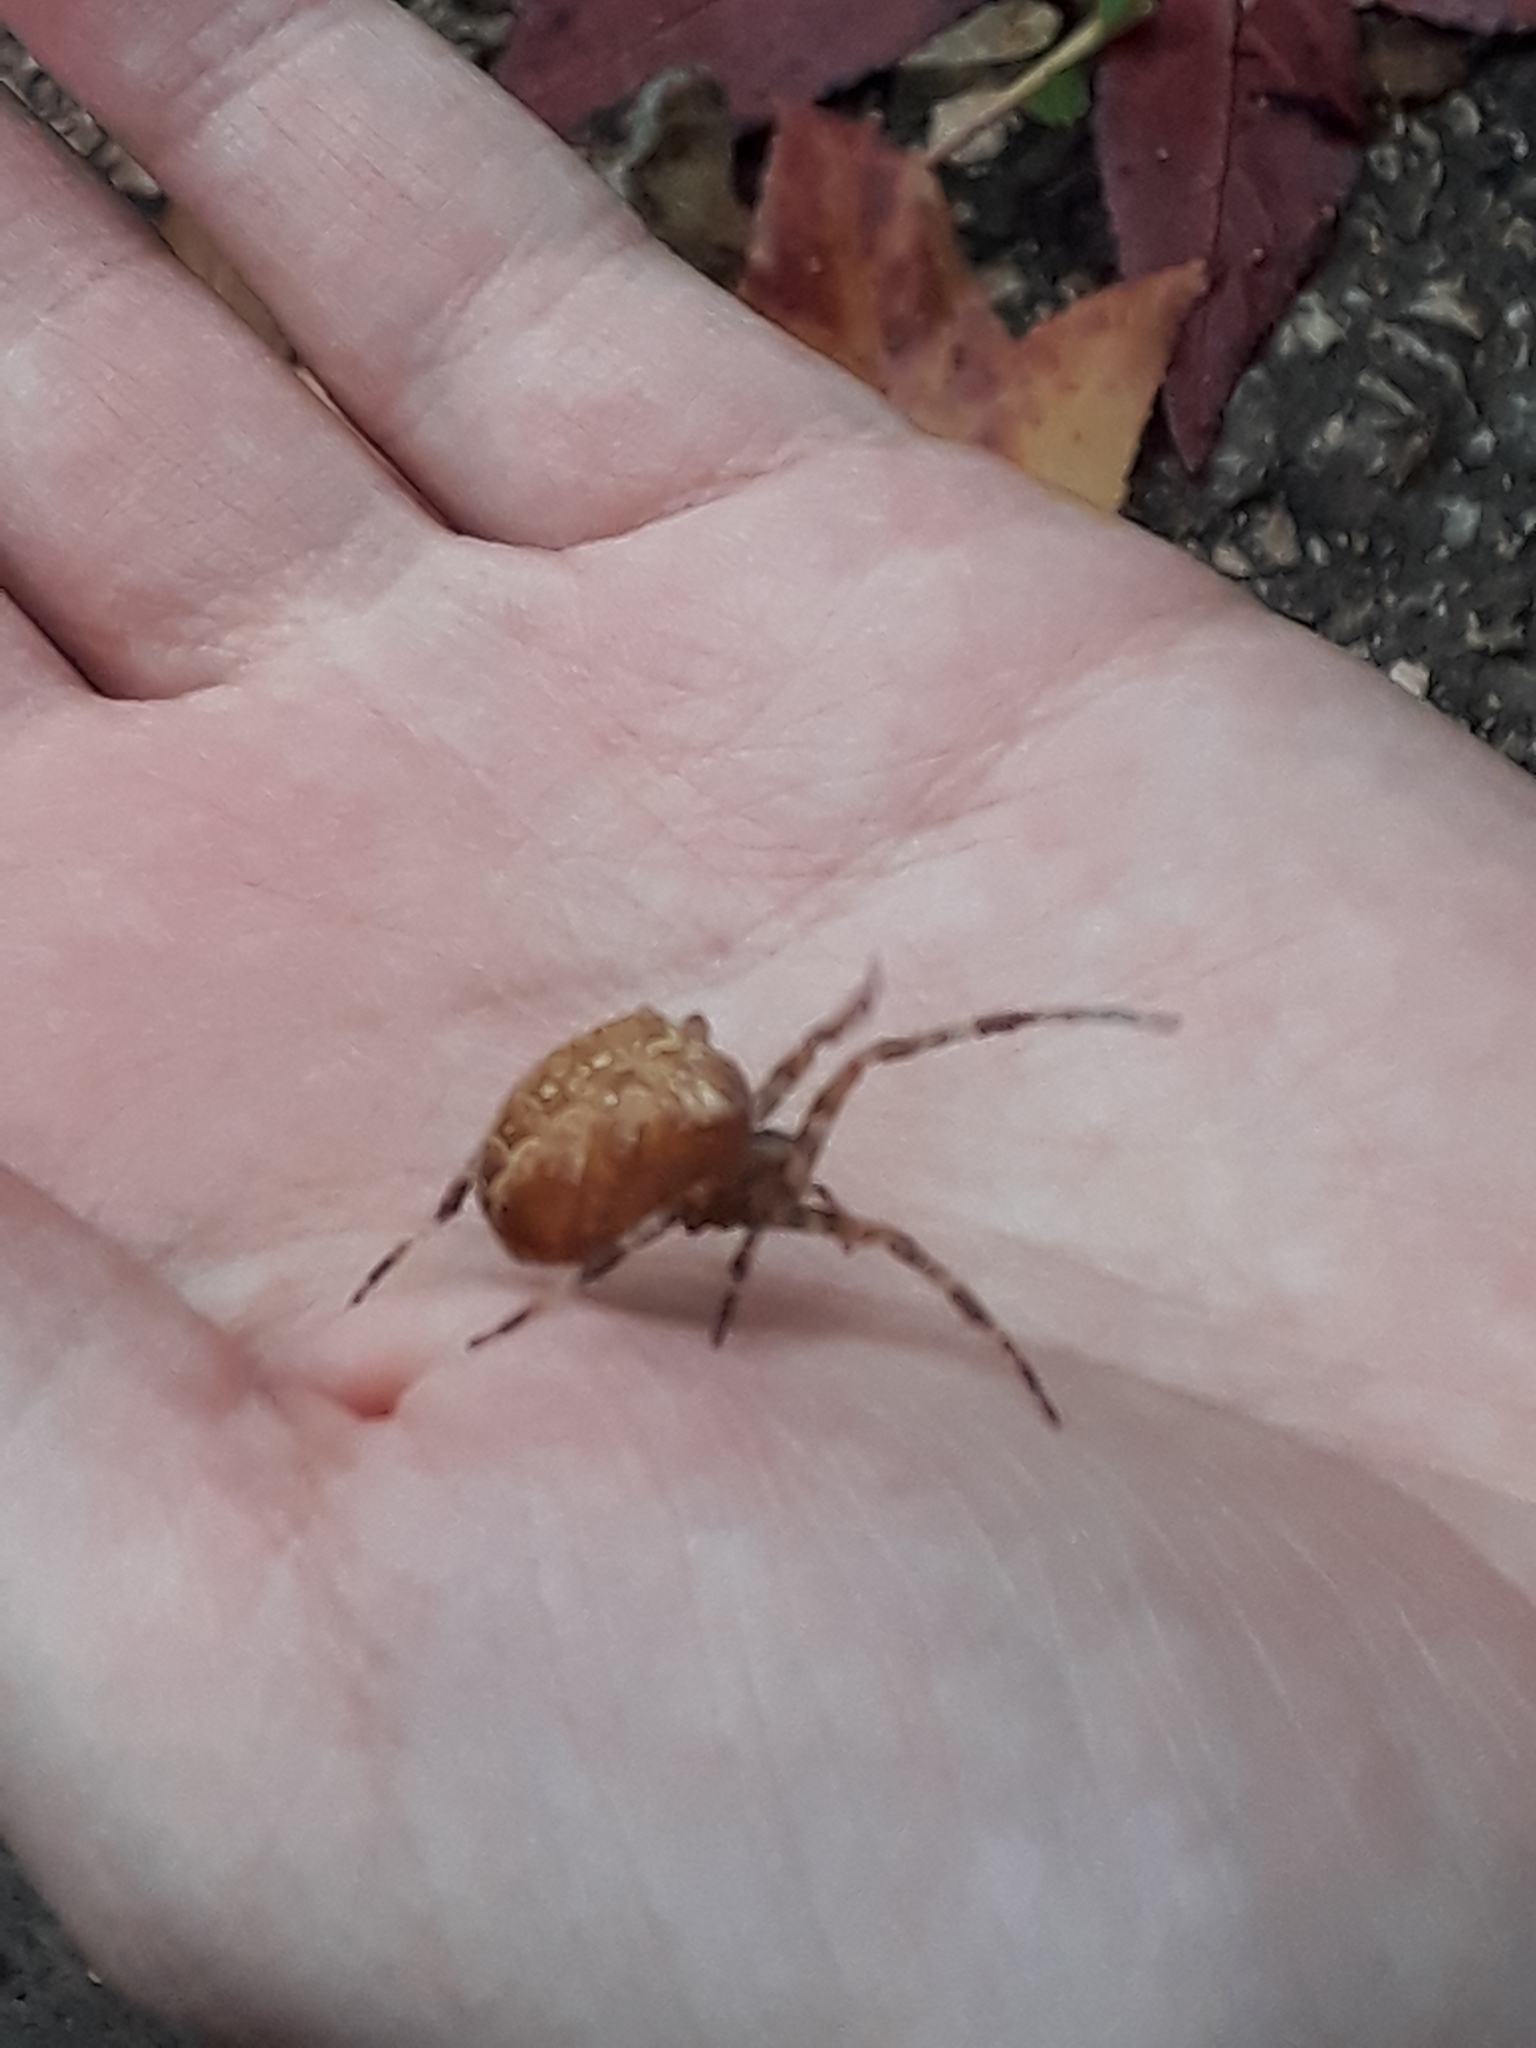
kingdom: Animalia
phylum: Arthropoda
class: Arachnida
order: Araneae
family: Araneidae
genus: Araneus
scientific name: Araneus diadematus
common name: Cross orbweaver
